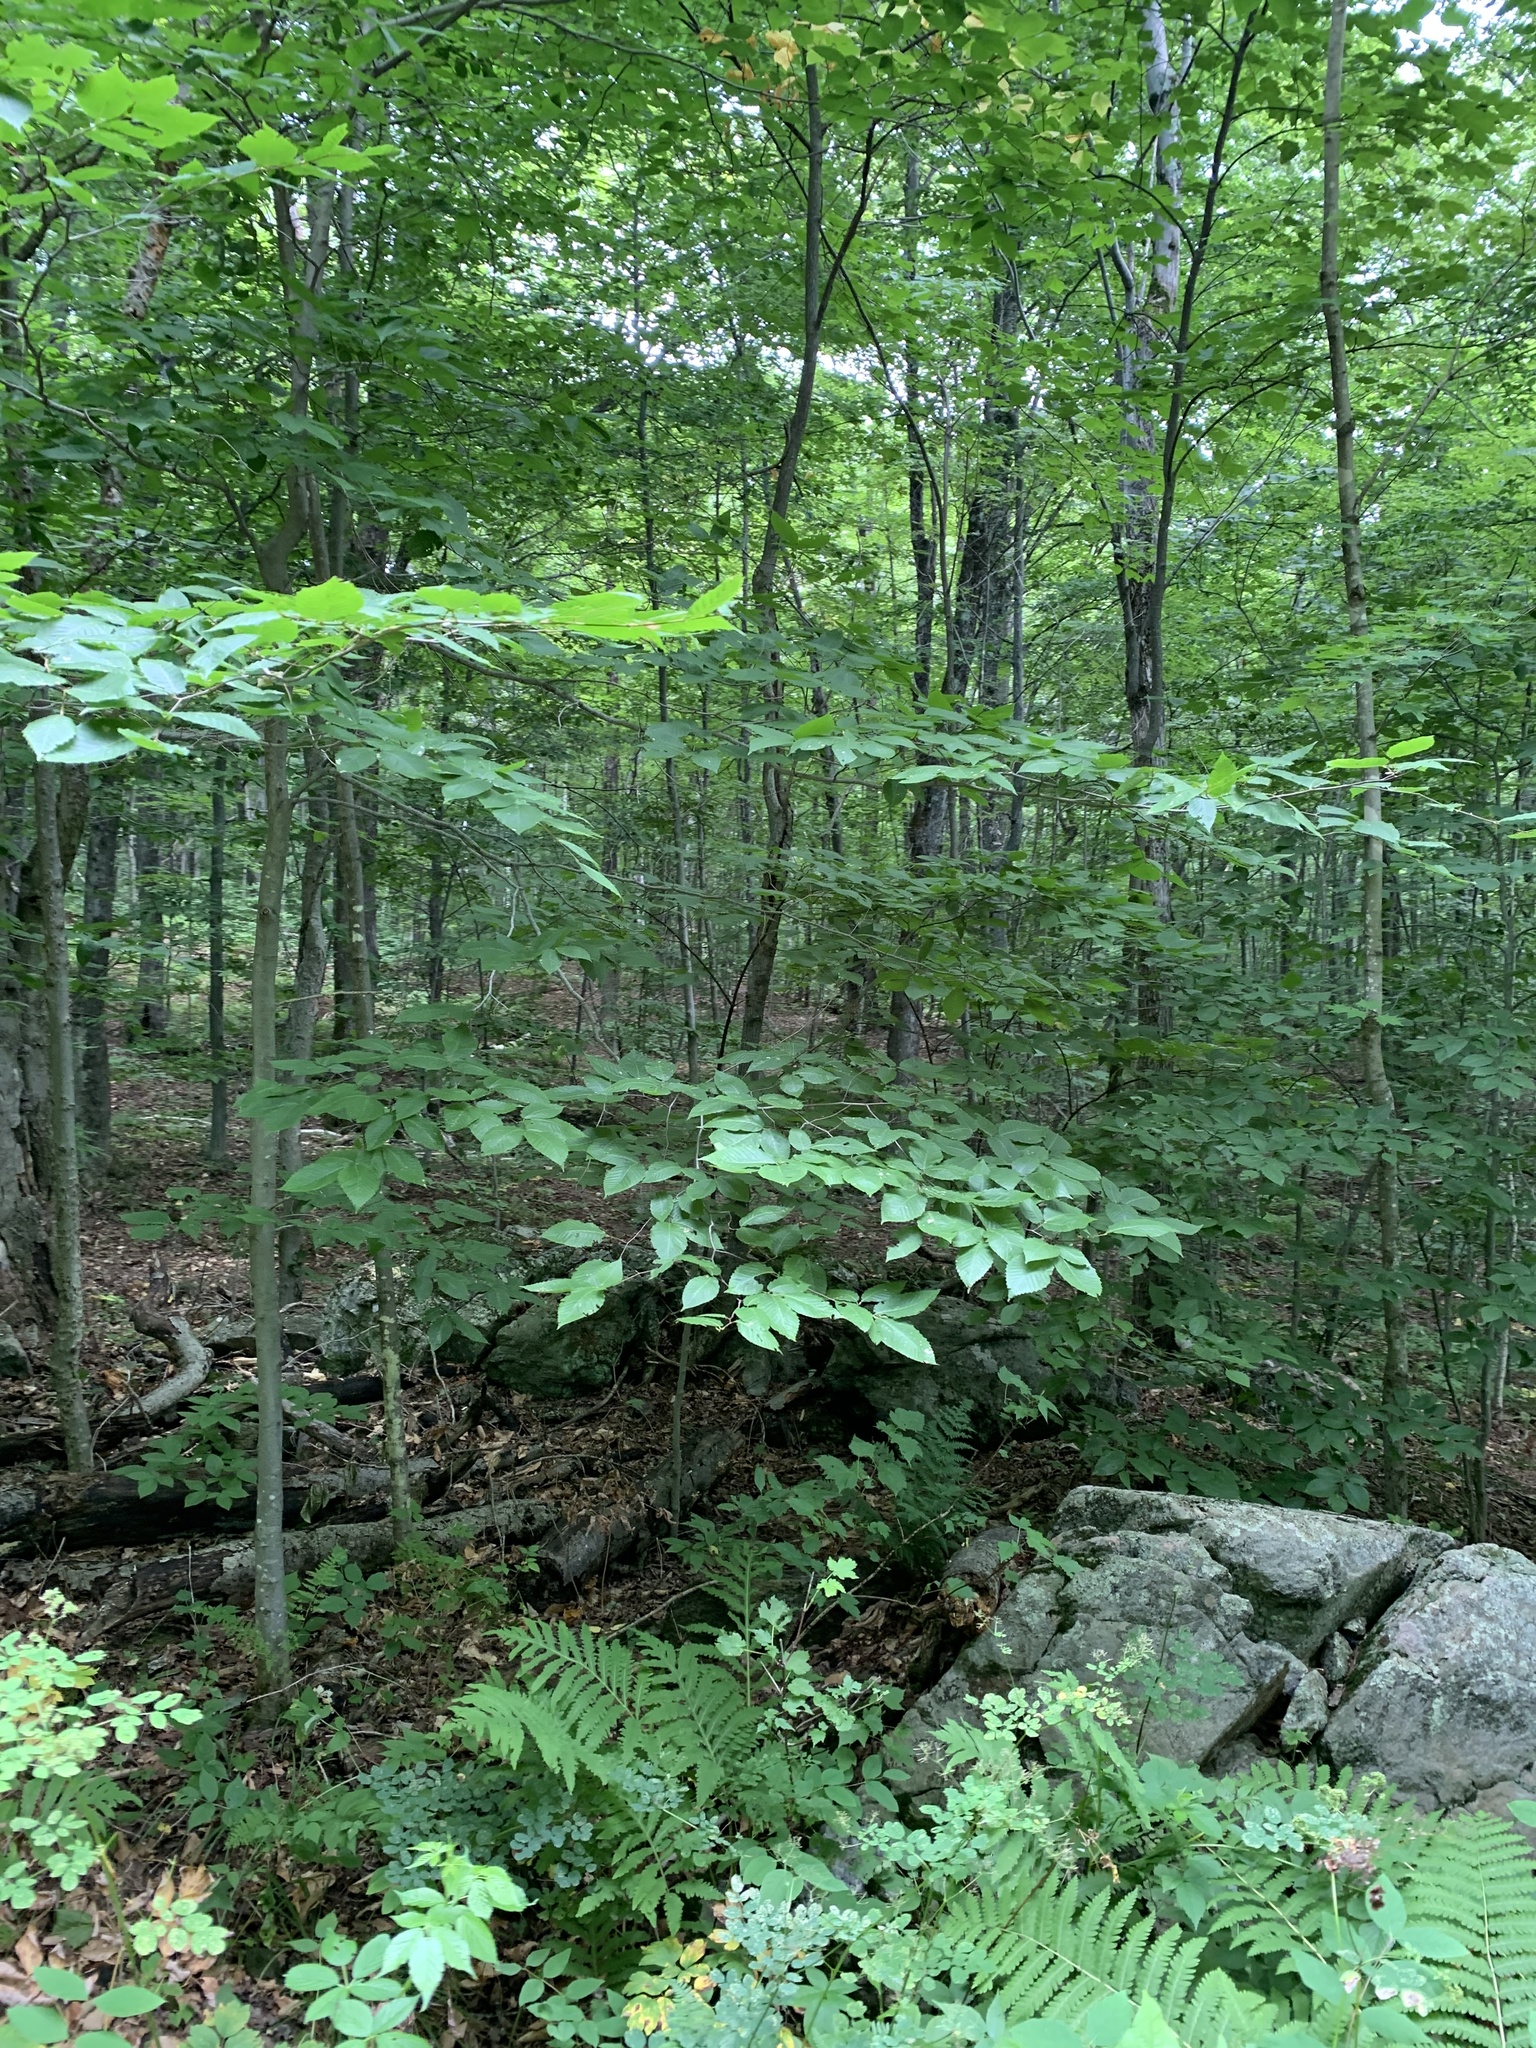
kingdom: Plantae
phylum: Tracheophyta
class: Magnoliopsida
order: Fagales
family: Fagaceae
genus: Fagus
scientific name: Fagus grandifolia
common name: American beech
